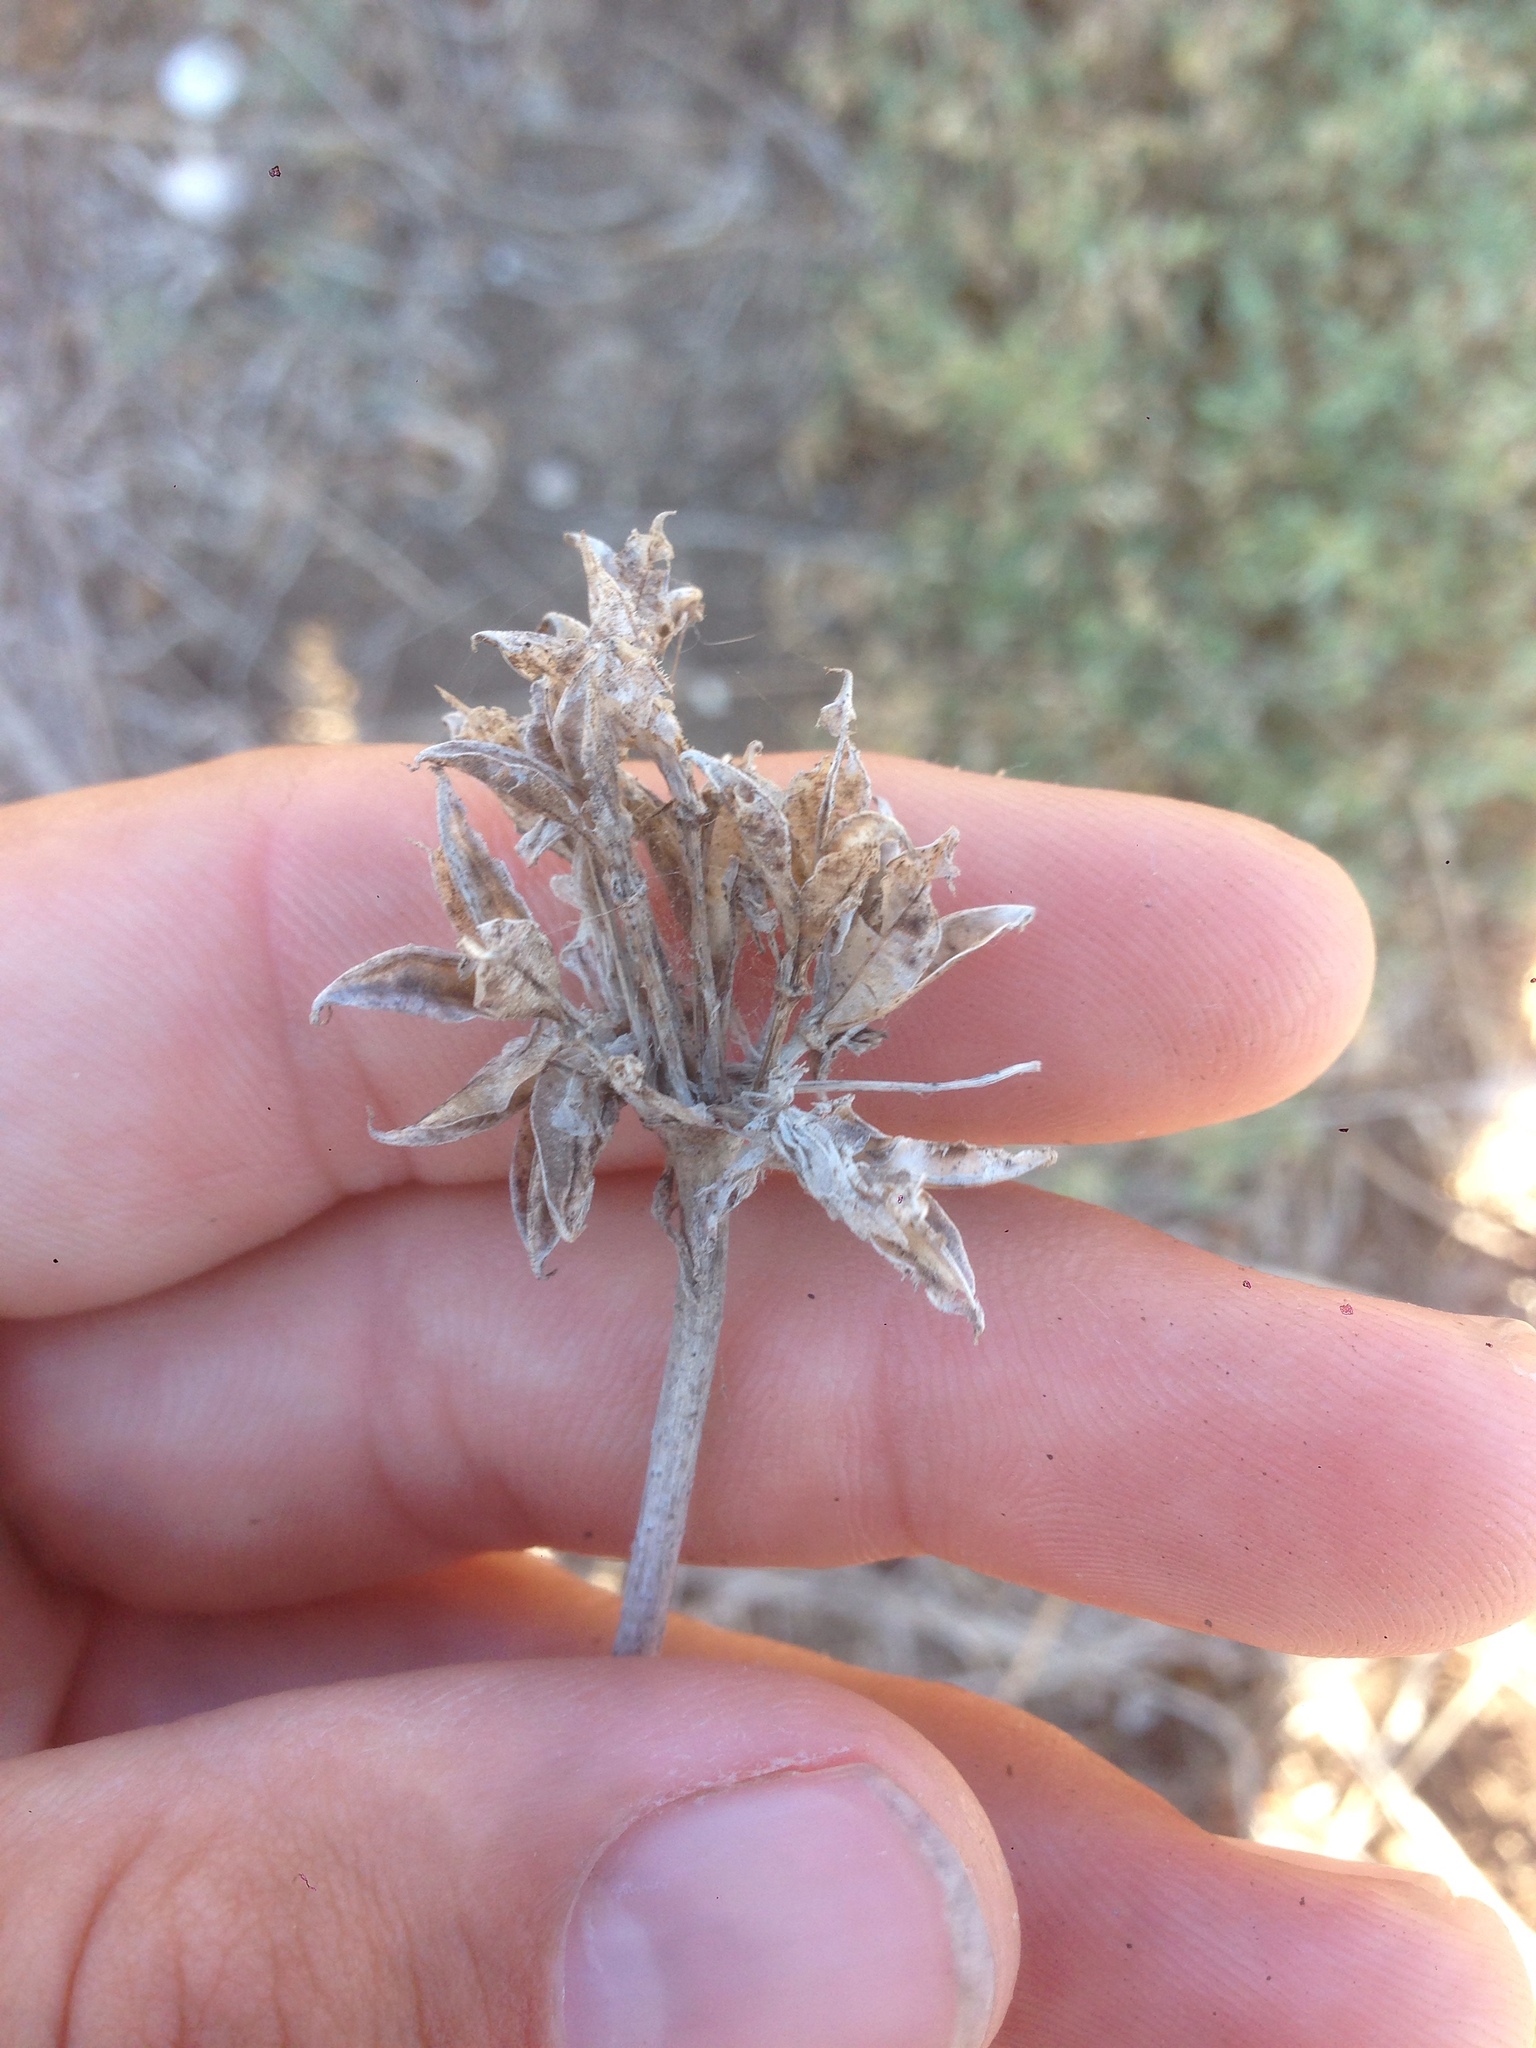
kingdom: Plantae
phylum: Tracheophyta
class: Liliopsida
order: Asparagales
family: Asparagaceae
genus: Dipterostemon
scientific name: Dipterostemon capitatus
